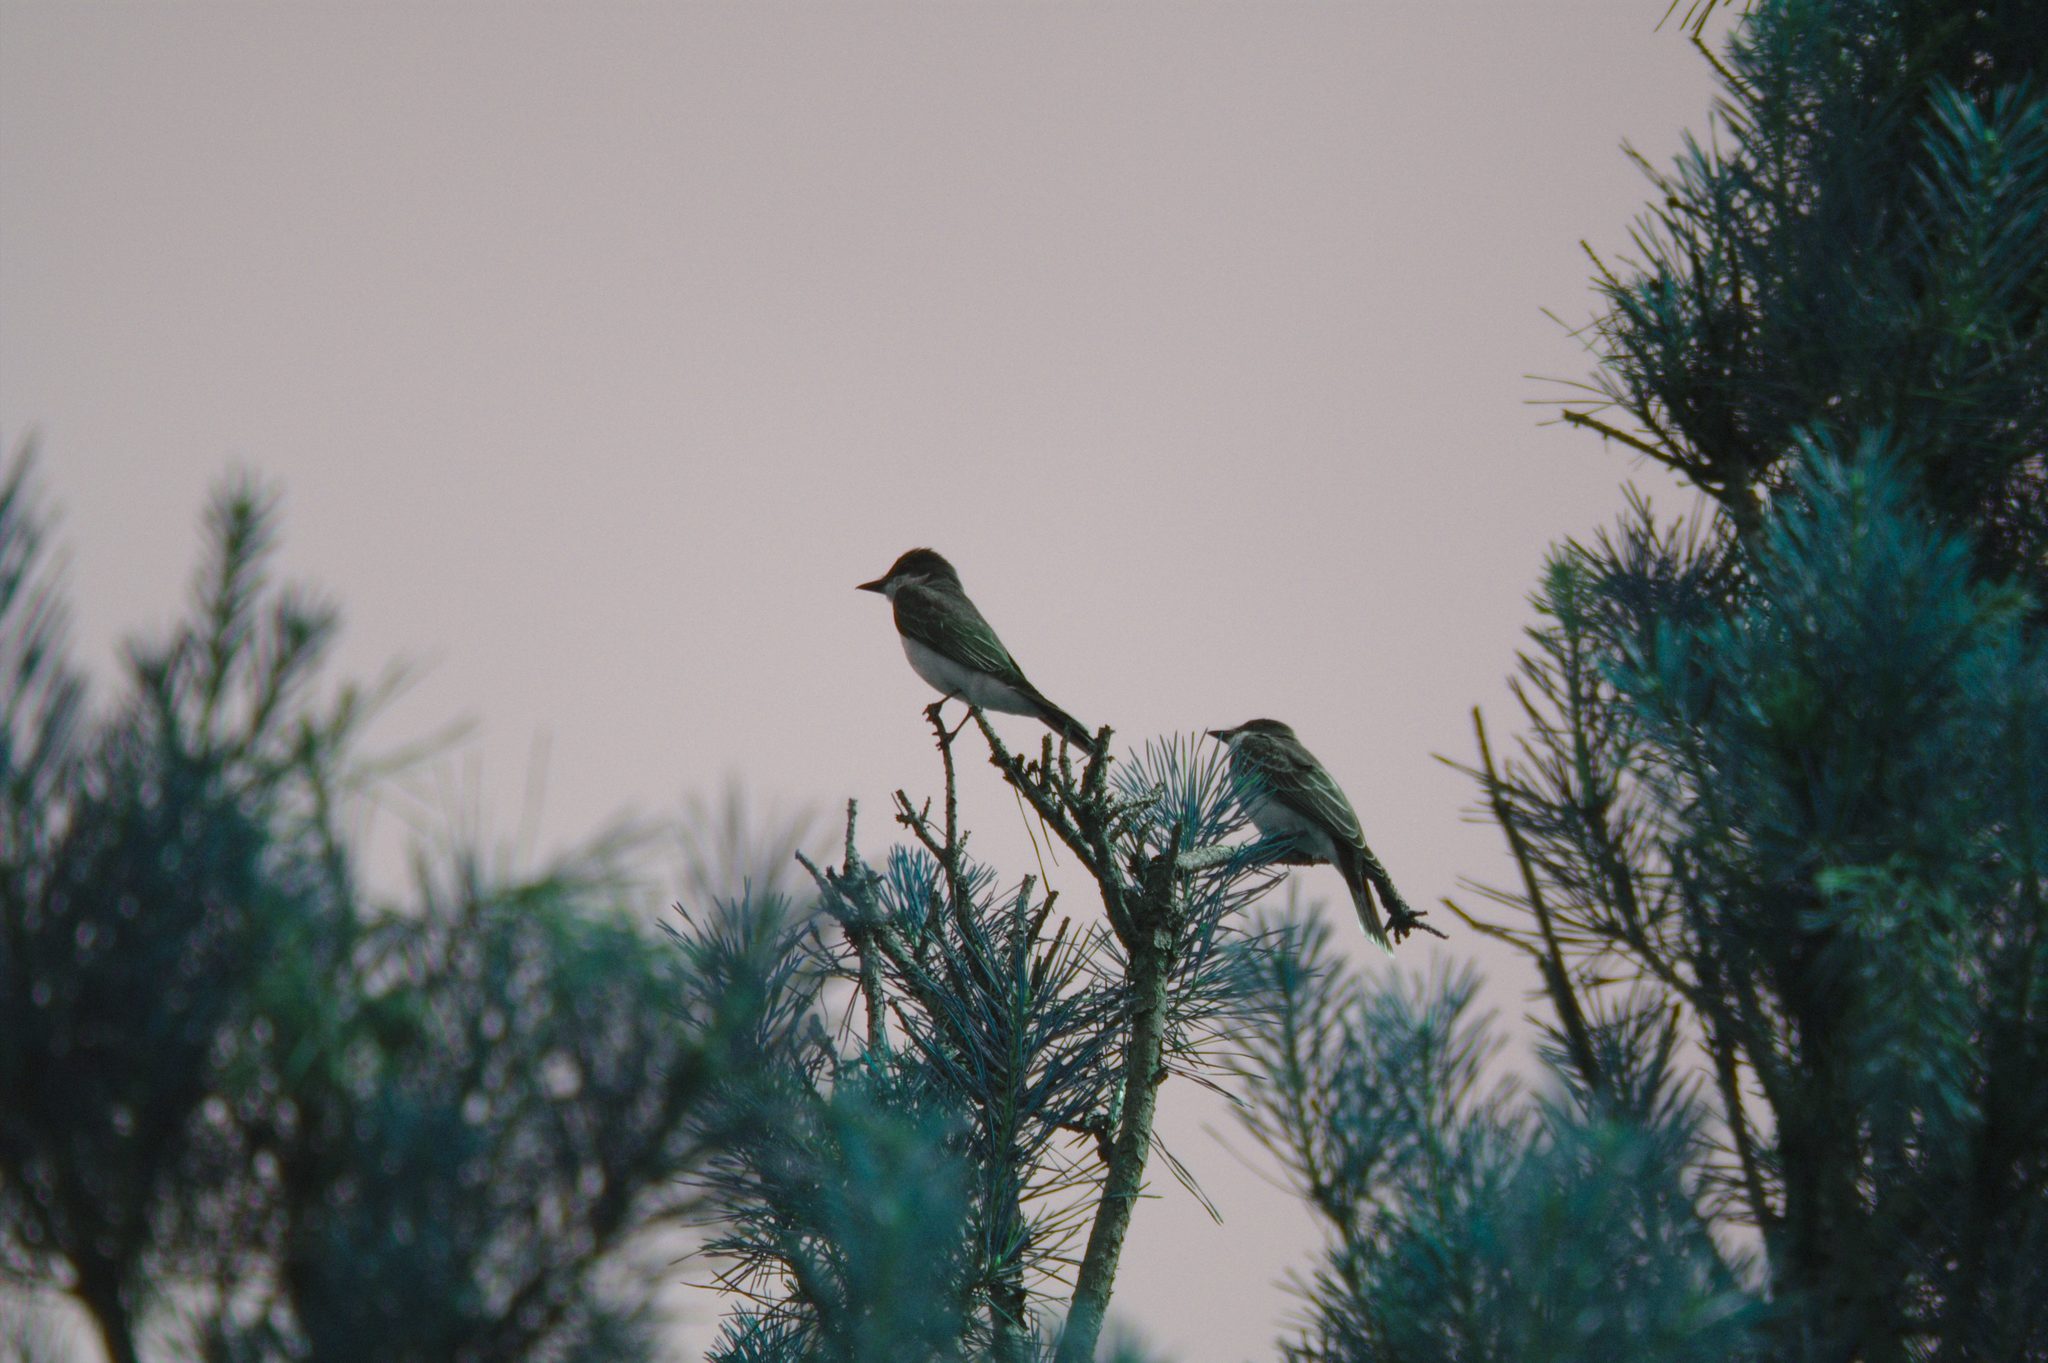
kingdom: Animalia
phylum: Chordata
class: Aves
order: Passeriformes
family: Tyrannidae
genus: Tyrannus
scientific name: Tyrannus tyrannus
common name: Eastern kingbird
